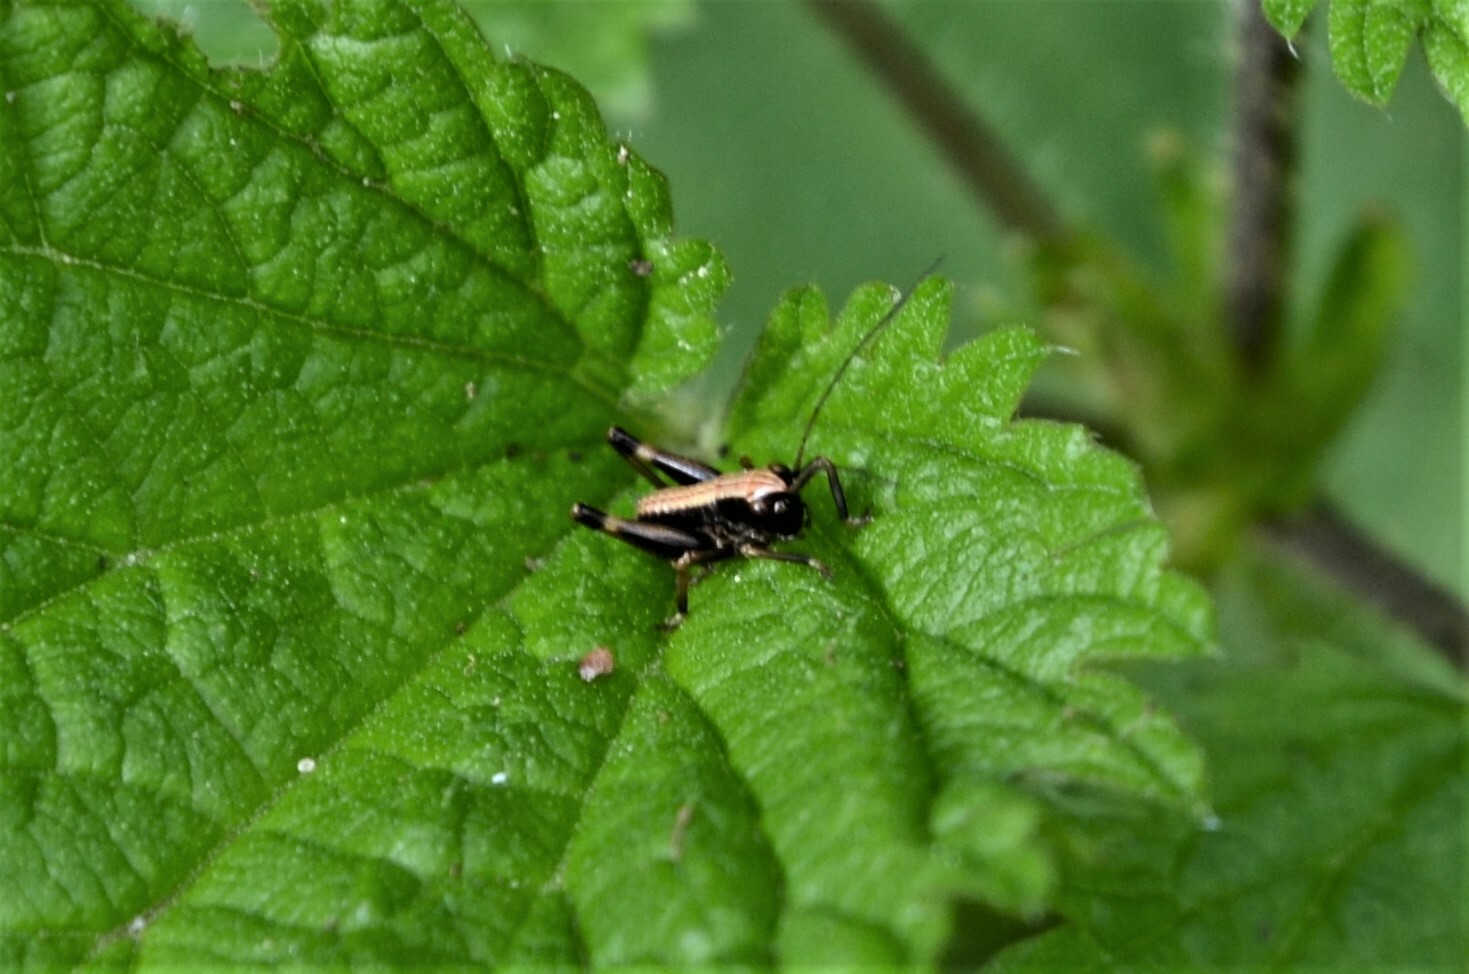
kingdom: Animalia
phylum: Arthropoda
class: Insecta
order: Orthoptera
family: Tettigoniidae
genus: Pholidoptera
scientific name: Pholidoptera griseoaptera
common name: Dark bush-cricket
